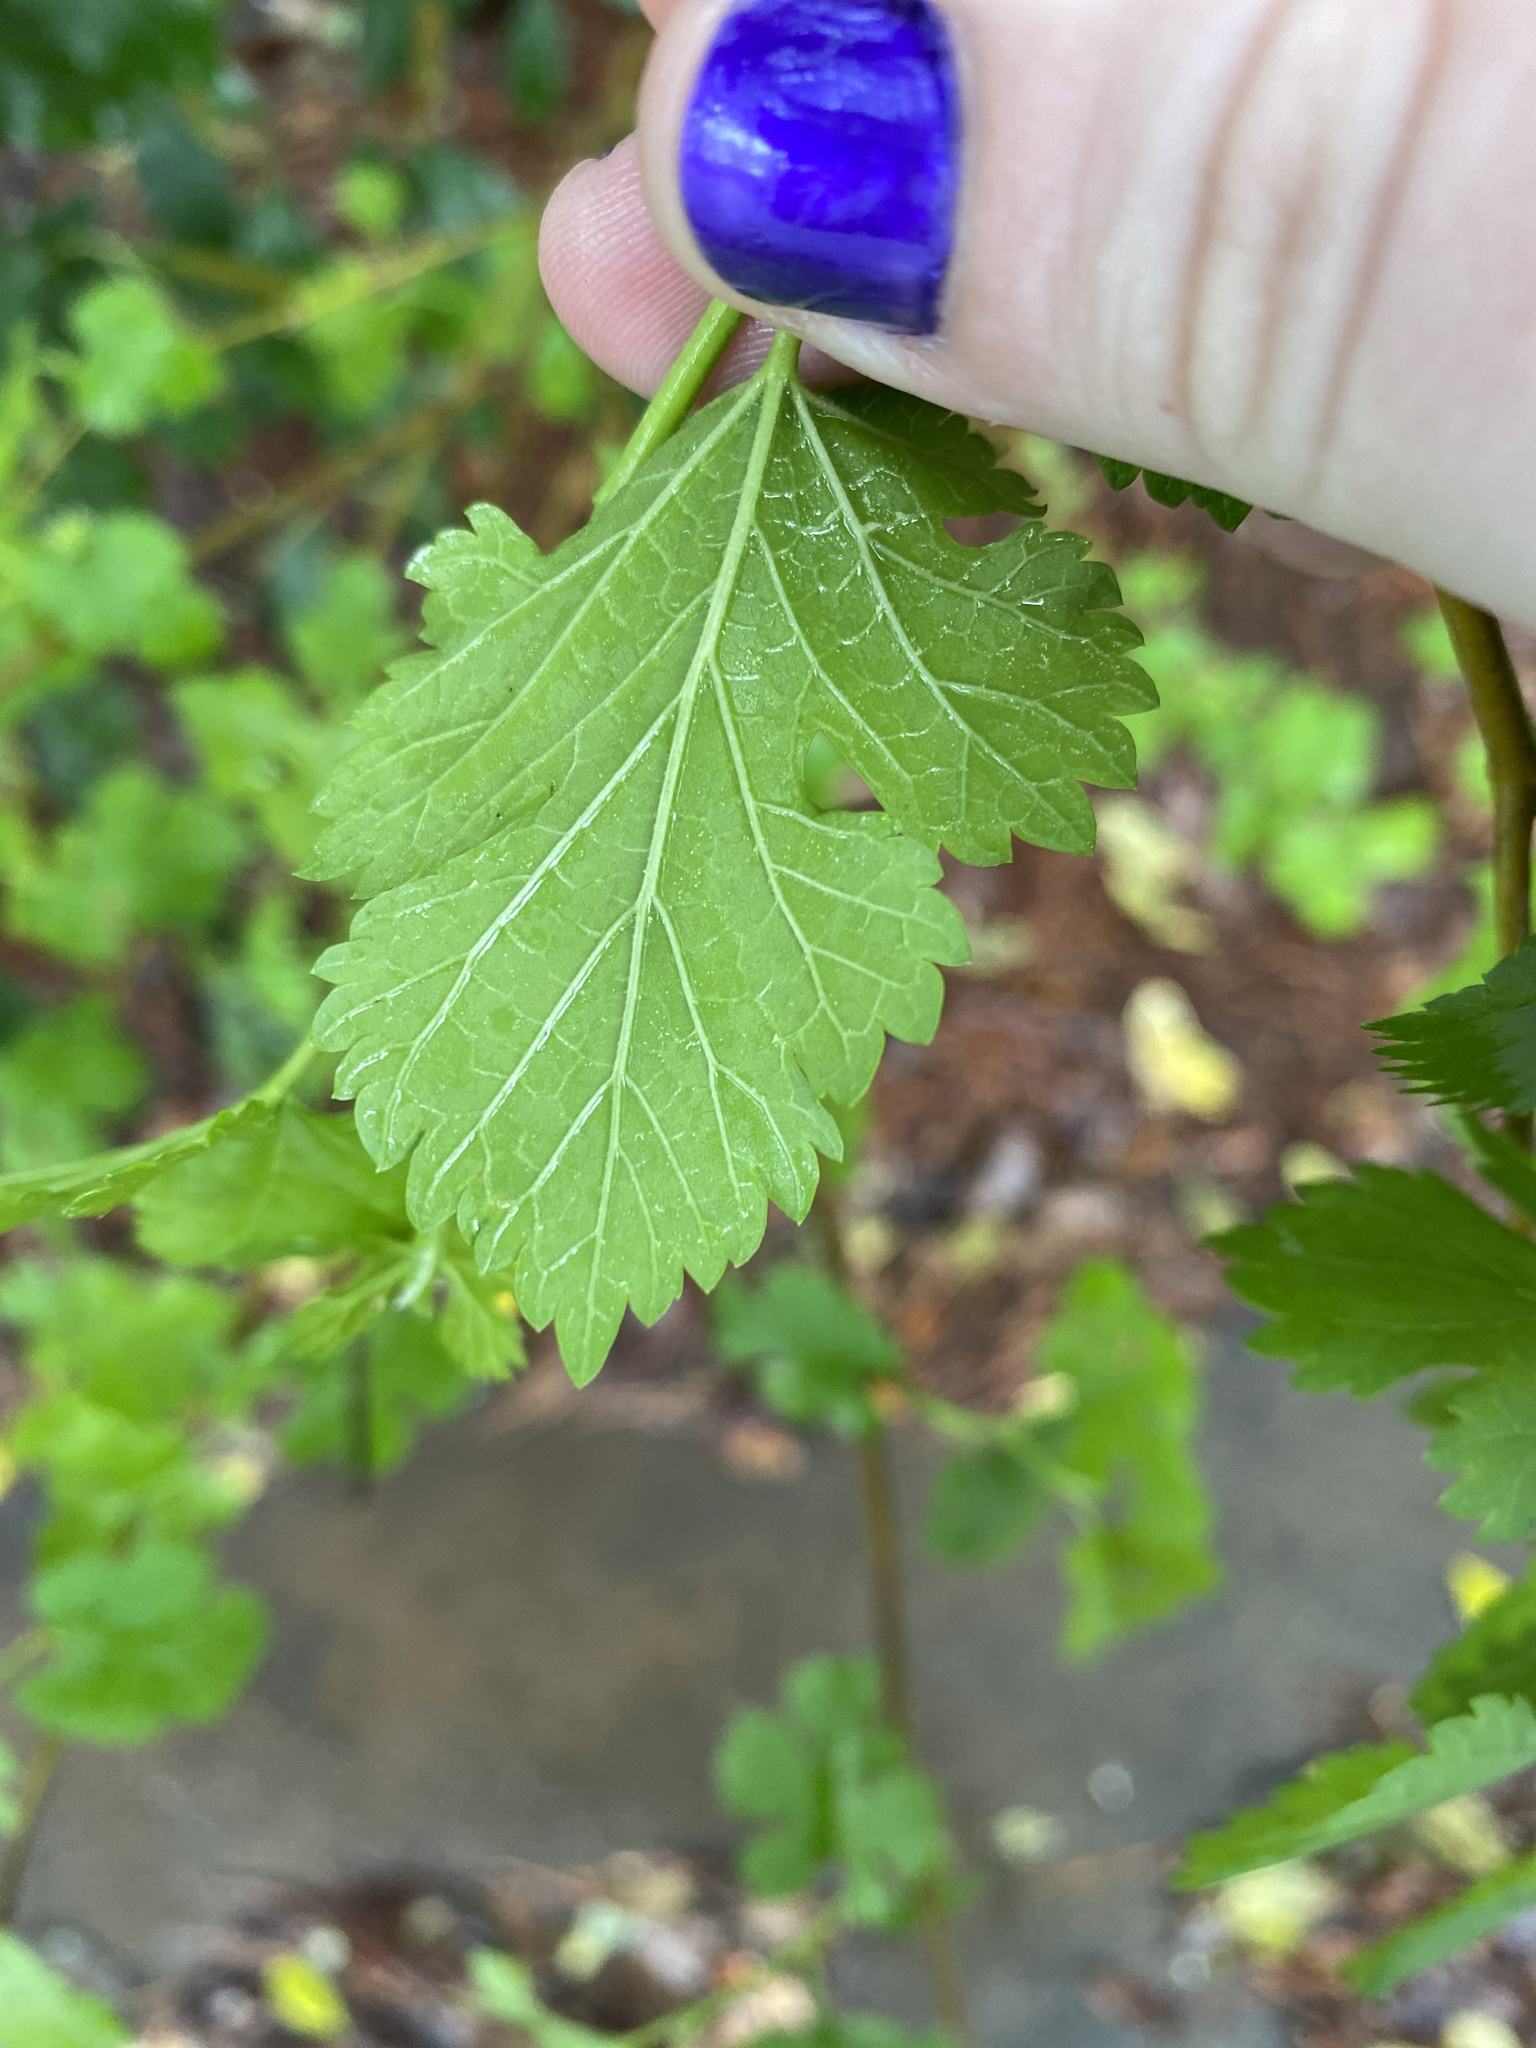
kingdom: Plantae
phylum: Tracheophyta
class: Magnoliopsida
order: Rosales
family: Moraceae
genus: Morus
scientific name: Morus alba
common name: White mulberry
